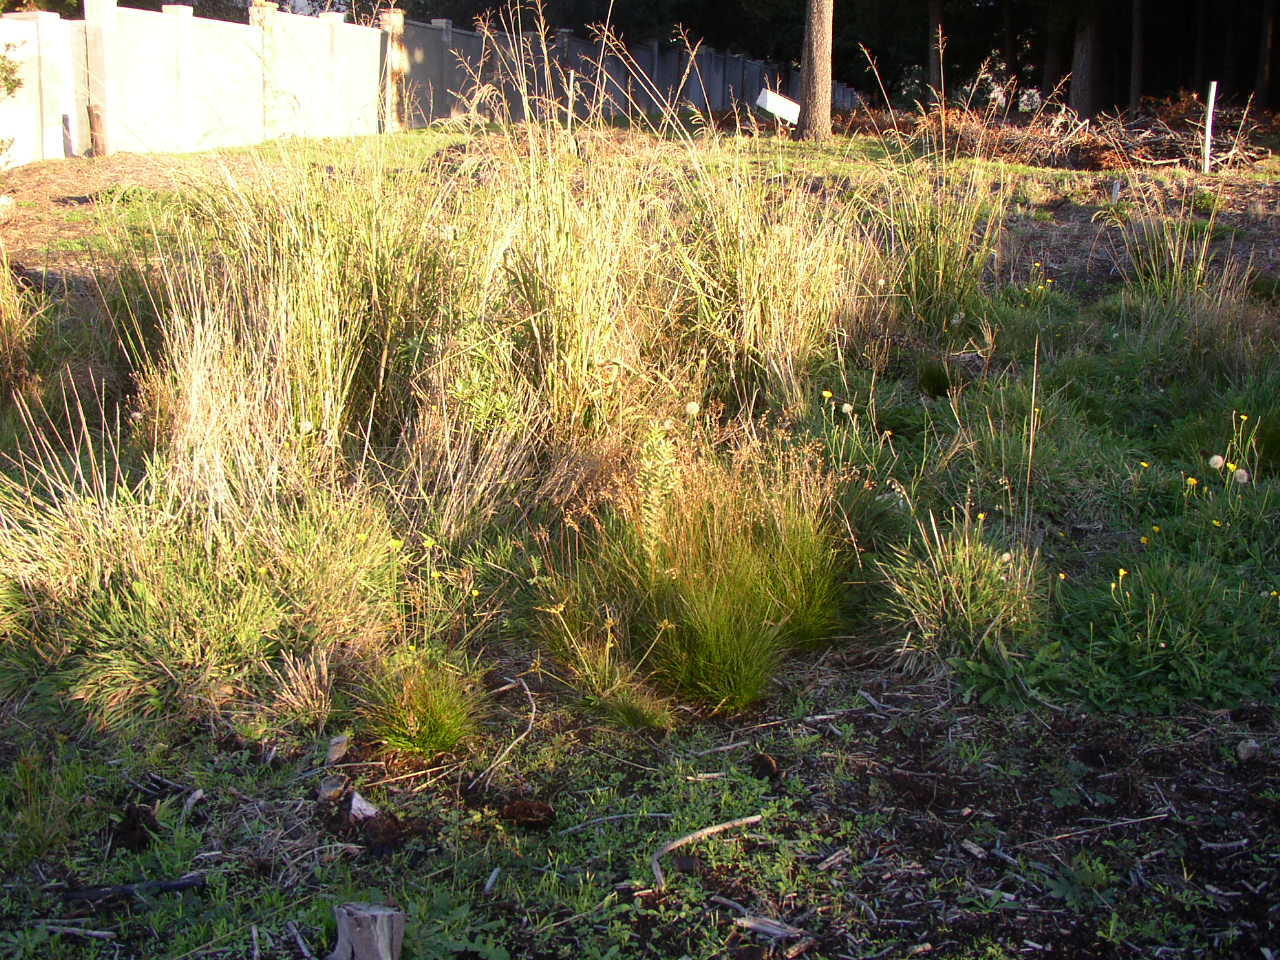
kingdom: Plantae
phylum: Tracheophyta
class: Magnoliopsida
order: Proteales
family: Proteaceae
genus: Leucadendron
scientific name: Leucadendron macowanii
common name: Acacia-leaf conebush
